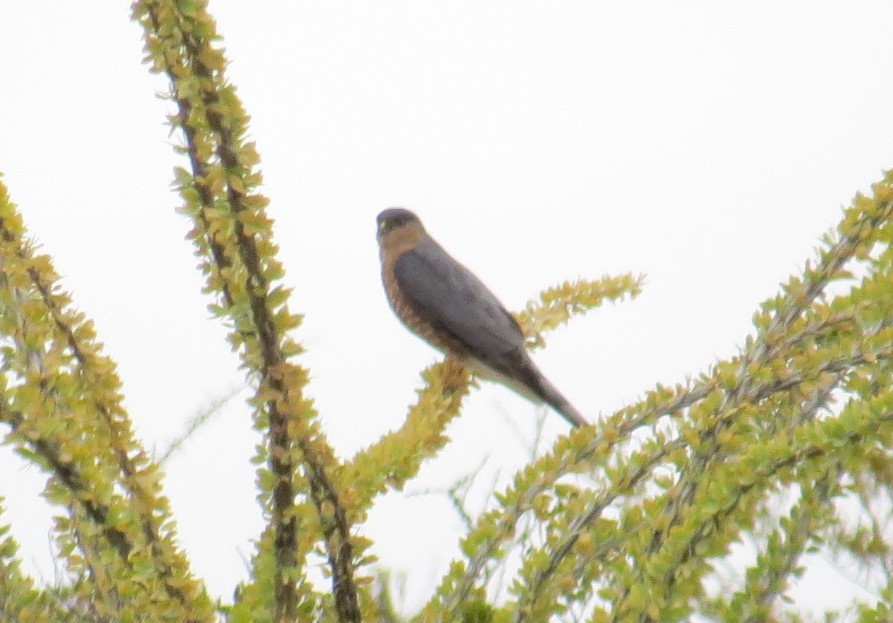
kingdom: Animalia
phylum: Chordata
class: Aves
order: Accipitriformes
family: Accipitridae
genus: Accipiter
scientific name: Accipiter cooperii
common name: Cooper's hawk
